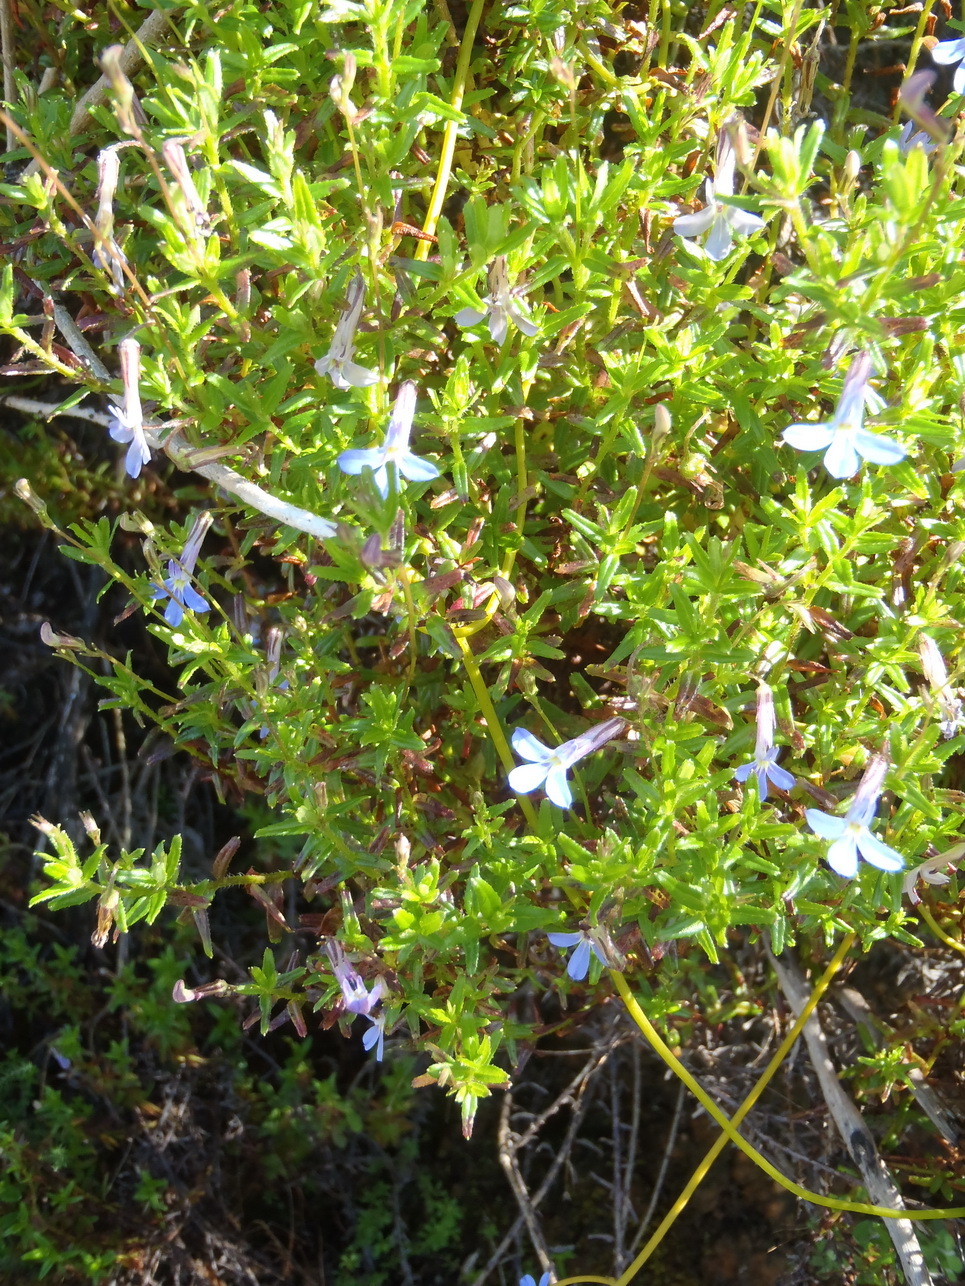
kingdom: Plantae
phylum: Tracheophyta
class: Magnoliopsida
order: Asterales
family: Campanulaceae
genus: Lobelia
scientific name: Lobelia neglecta
